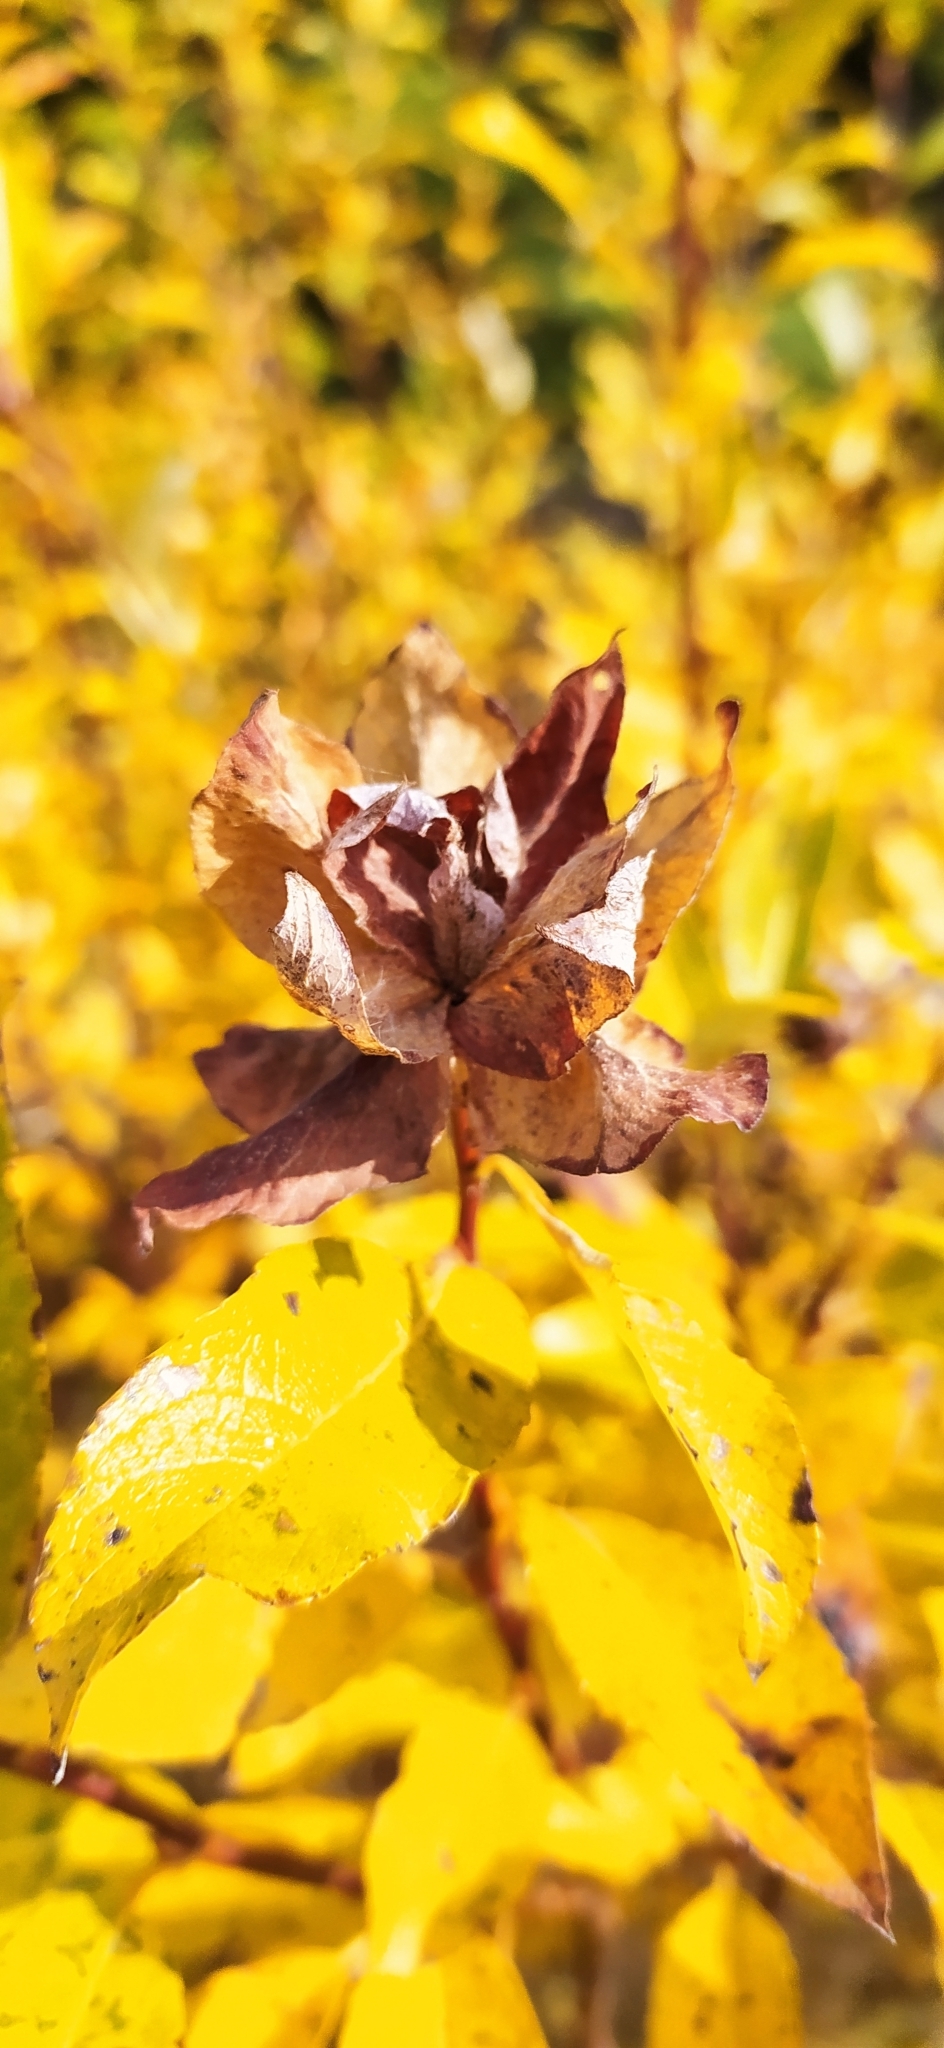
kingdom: Animalia
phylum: Arthropoda
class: Insecta
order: Diptera
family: Cecidomyiidae
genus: Rabdophaga
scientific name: Rabdophaga rosaria
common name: Willow rose gall midge
